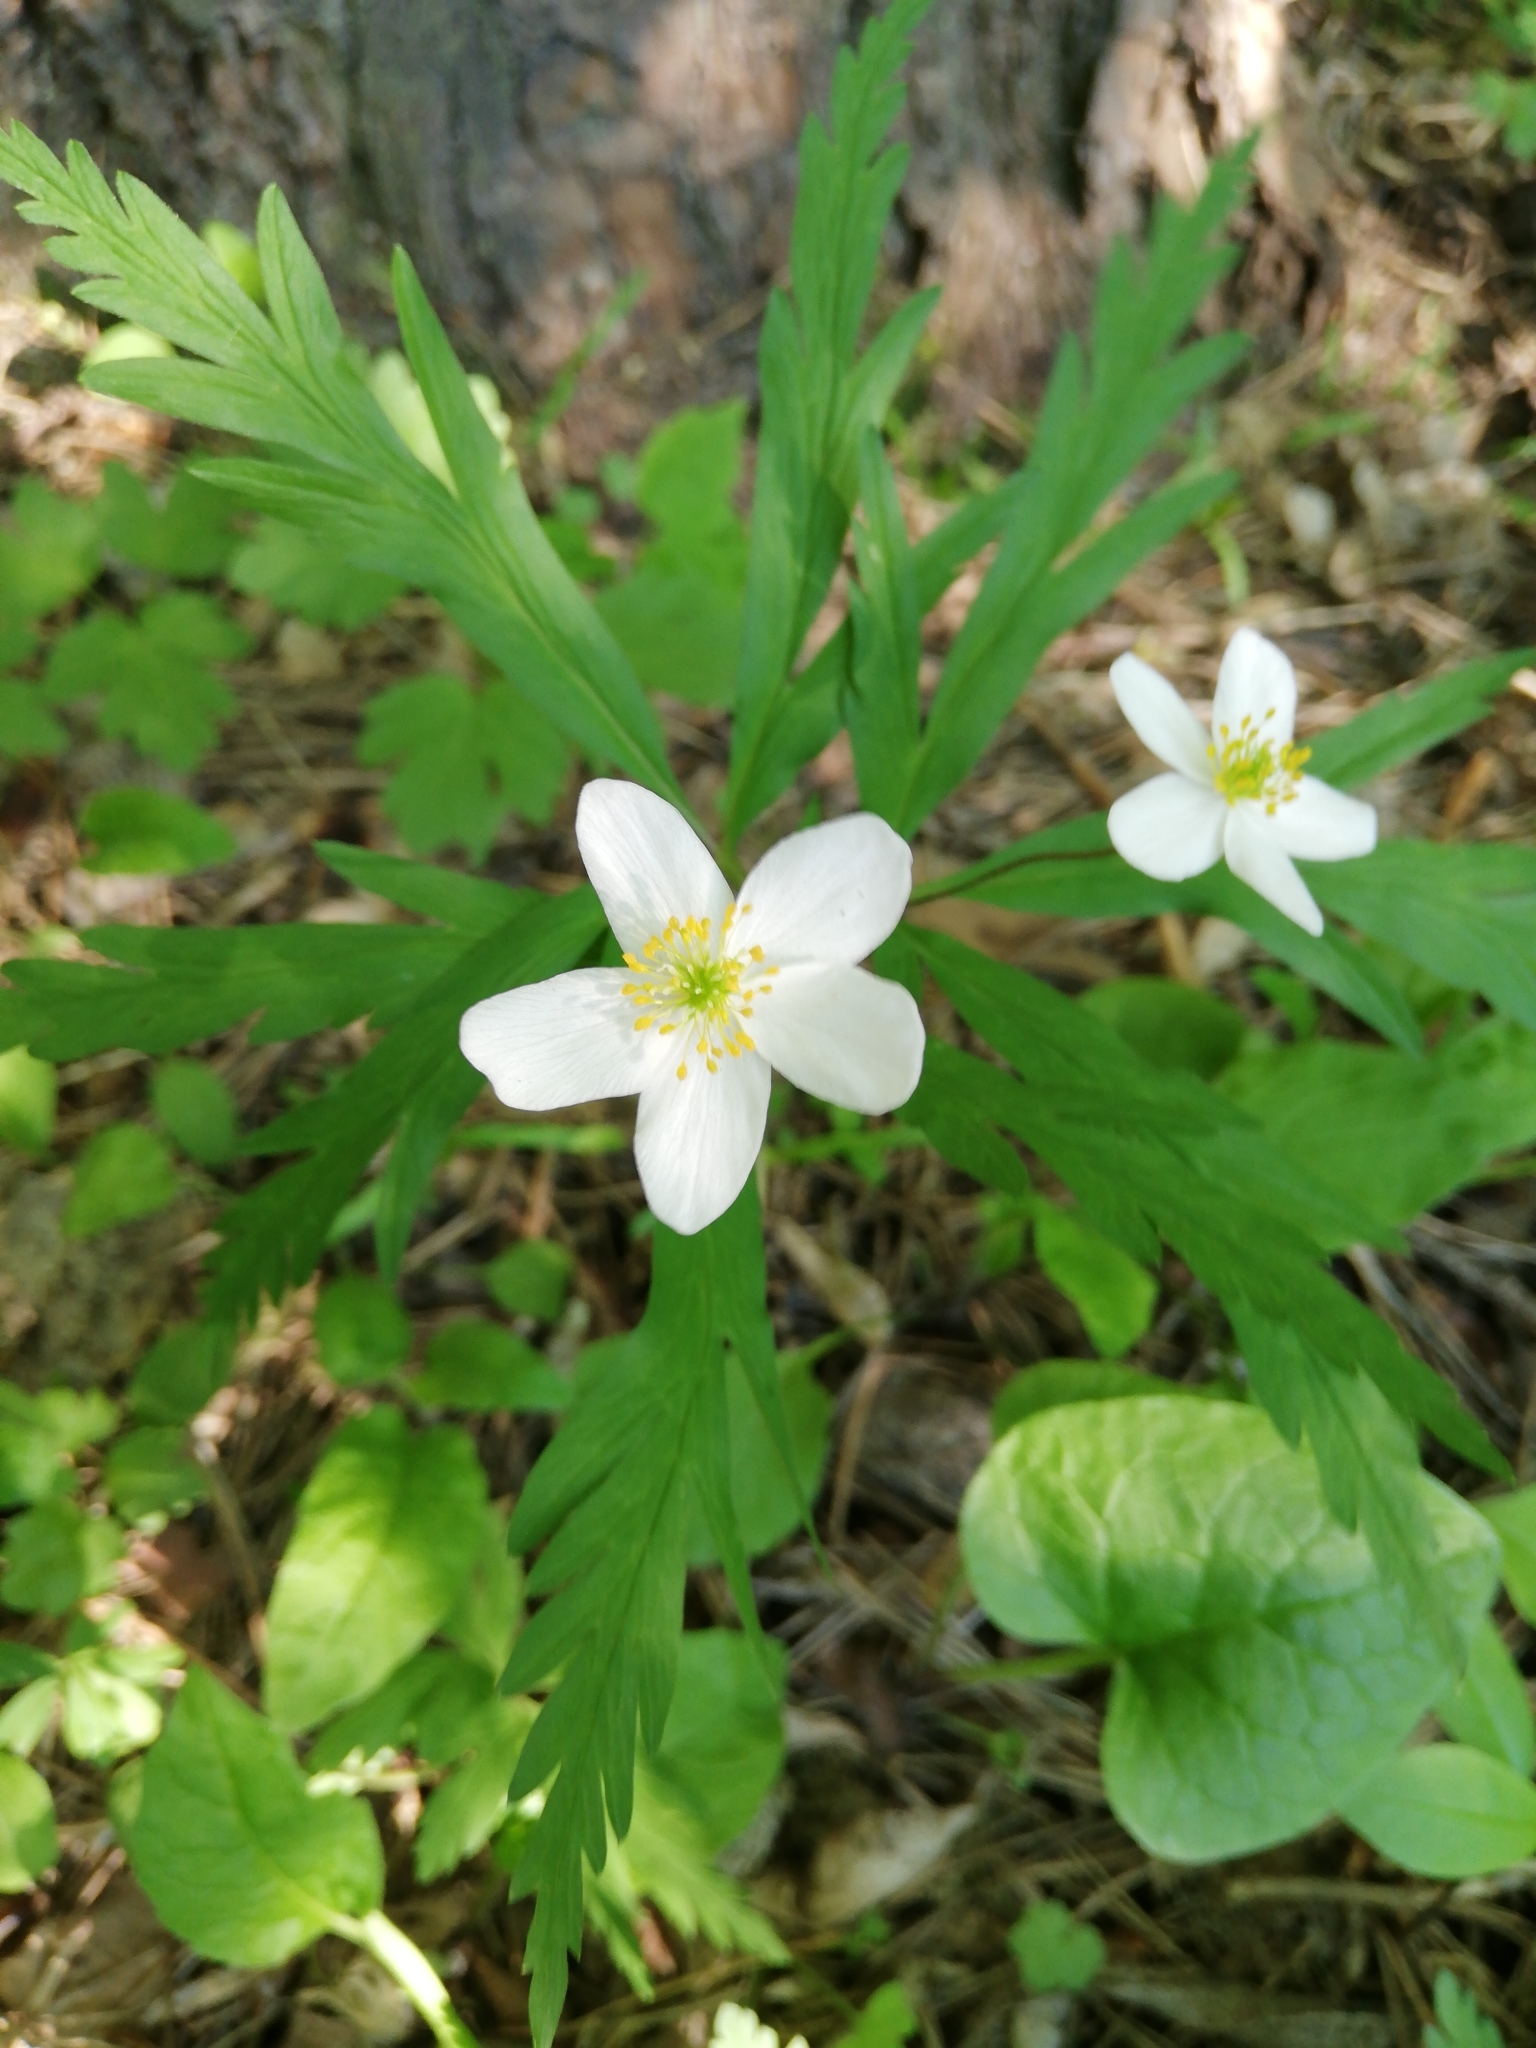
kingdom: Plantae
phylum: Tracheophyta
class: Magnoliopsida
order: Ranunculales
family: Ranunculaceae
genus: Anemone
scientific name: Anemone caerulea
